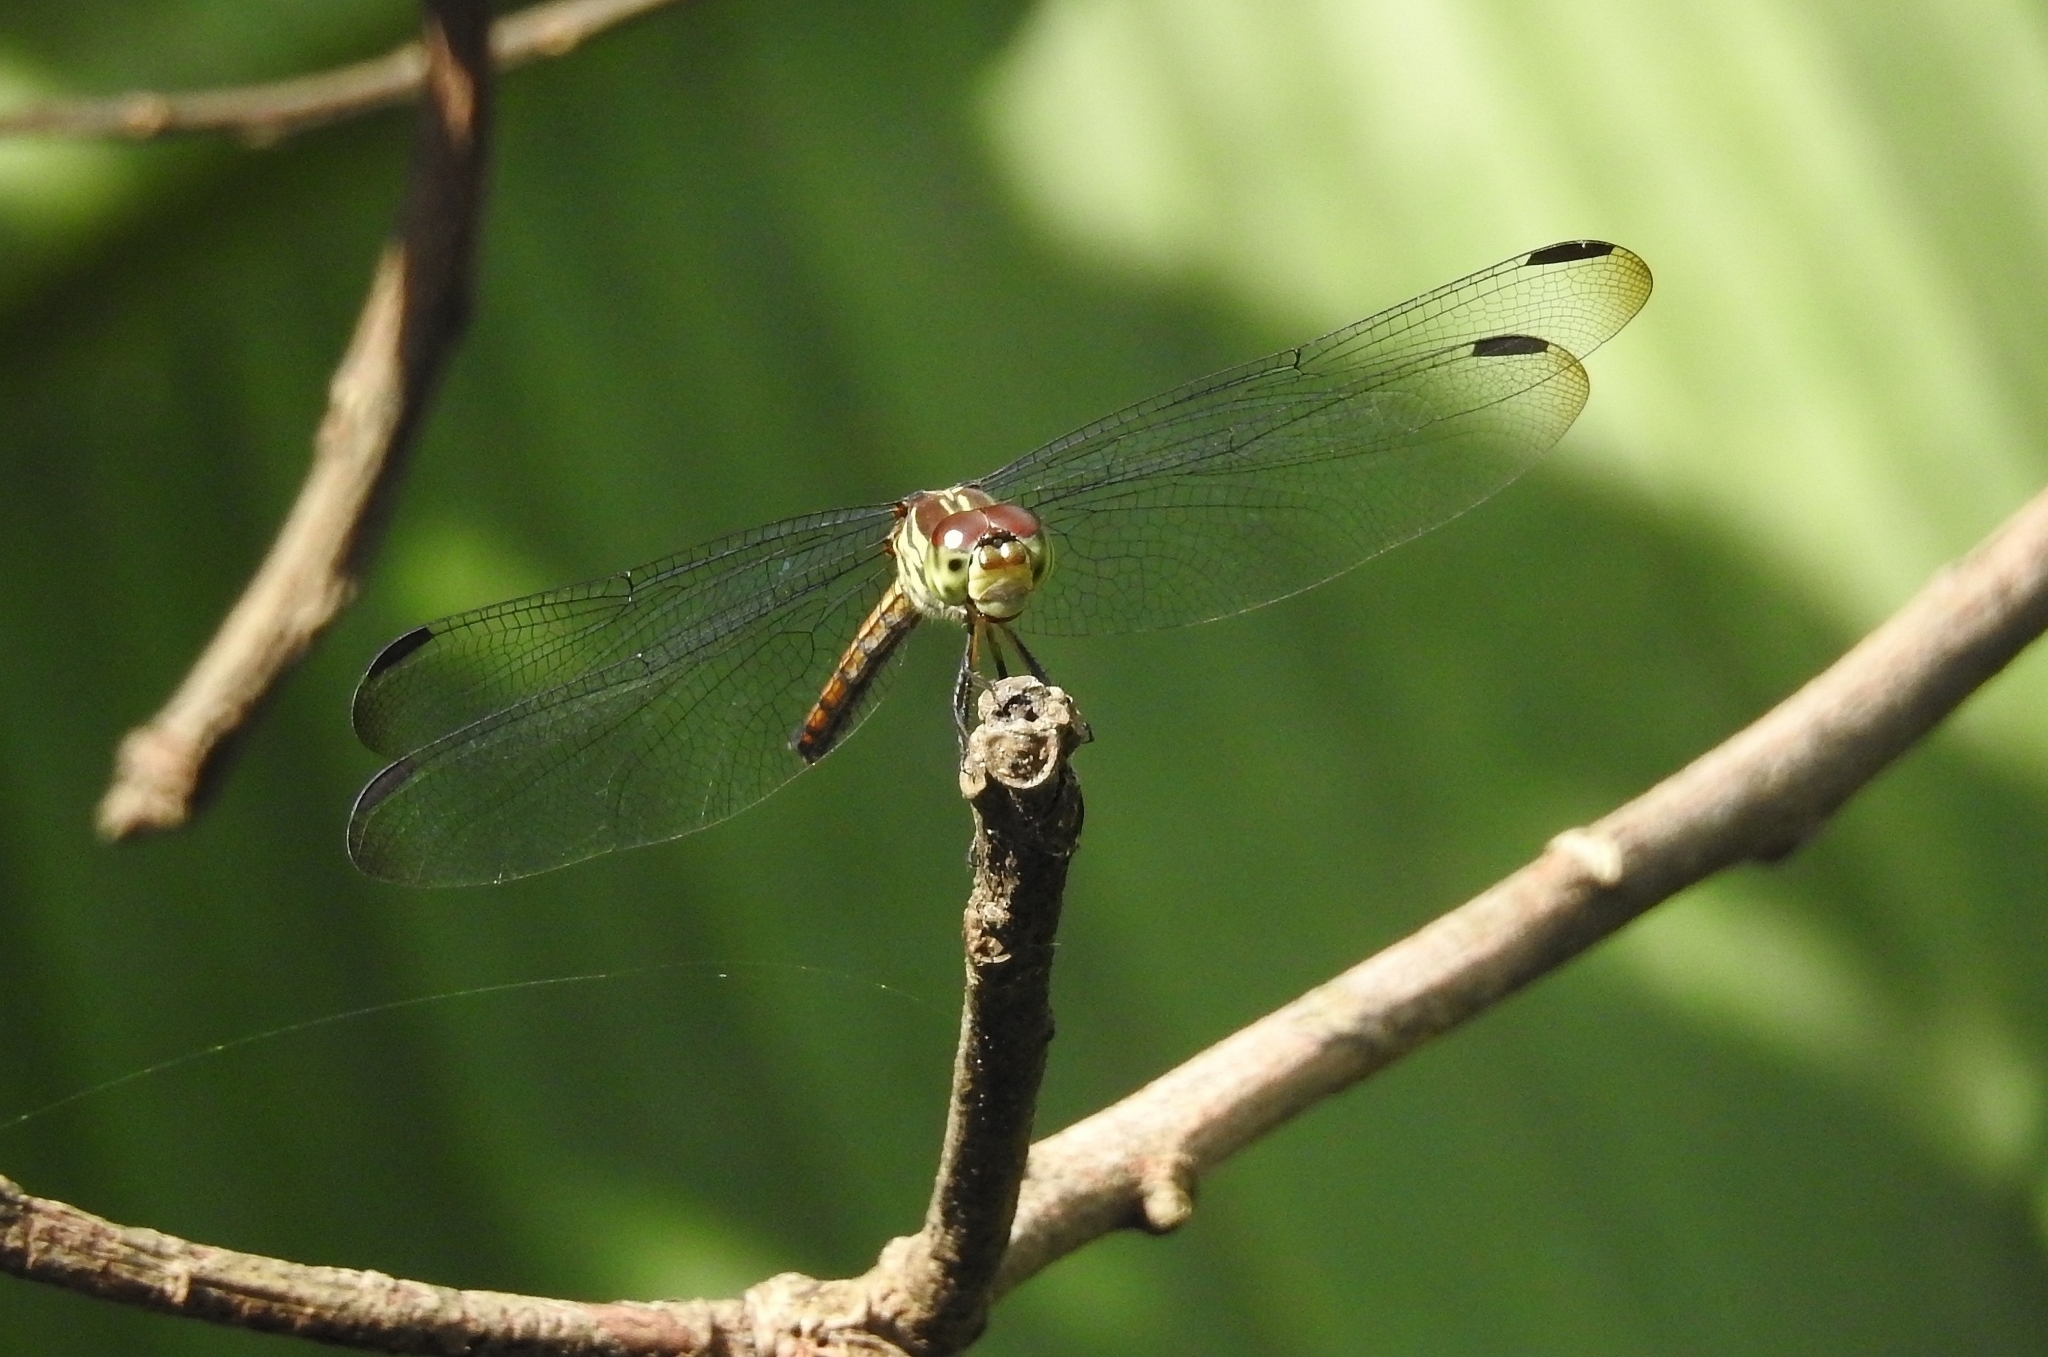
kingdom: Animalia
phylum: Arthropoda
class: Insecta
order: Odonata
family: Libellulidae
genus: Lathrecista
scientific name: Lathrecista asiatica
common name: Scarlet grenadier
